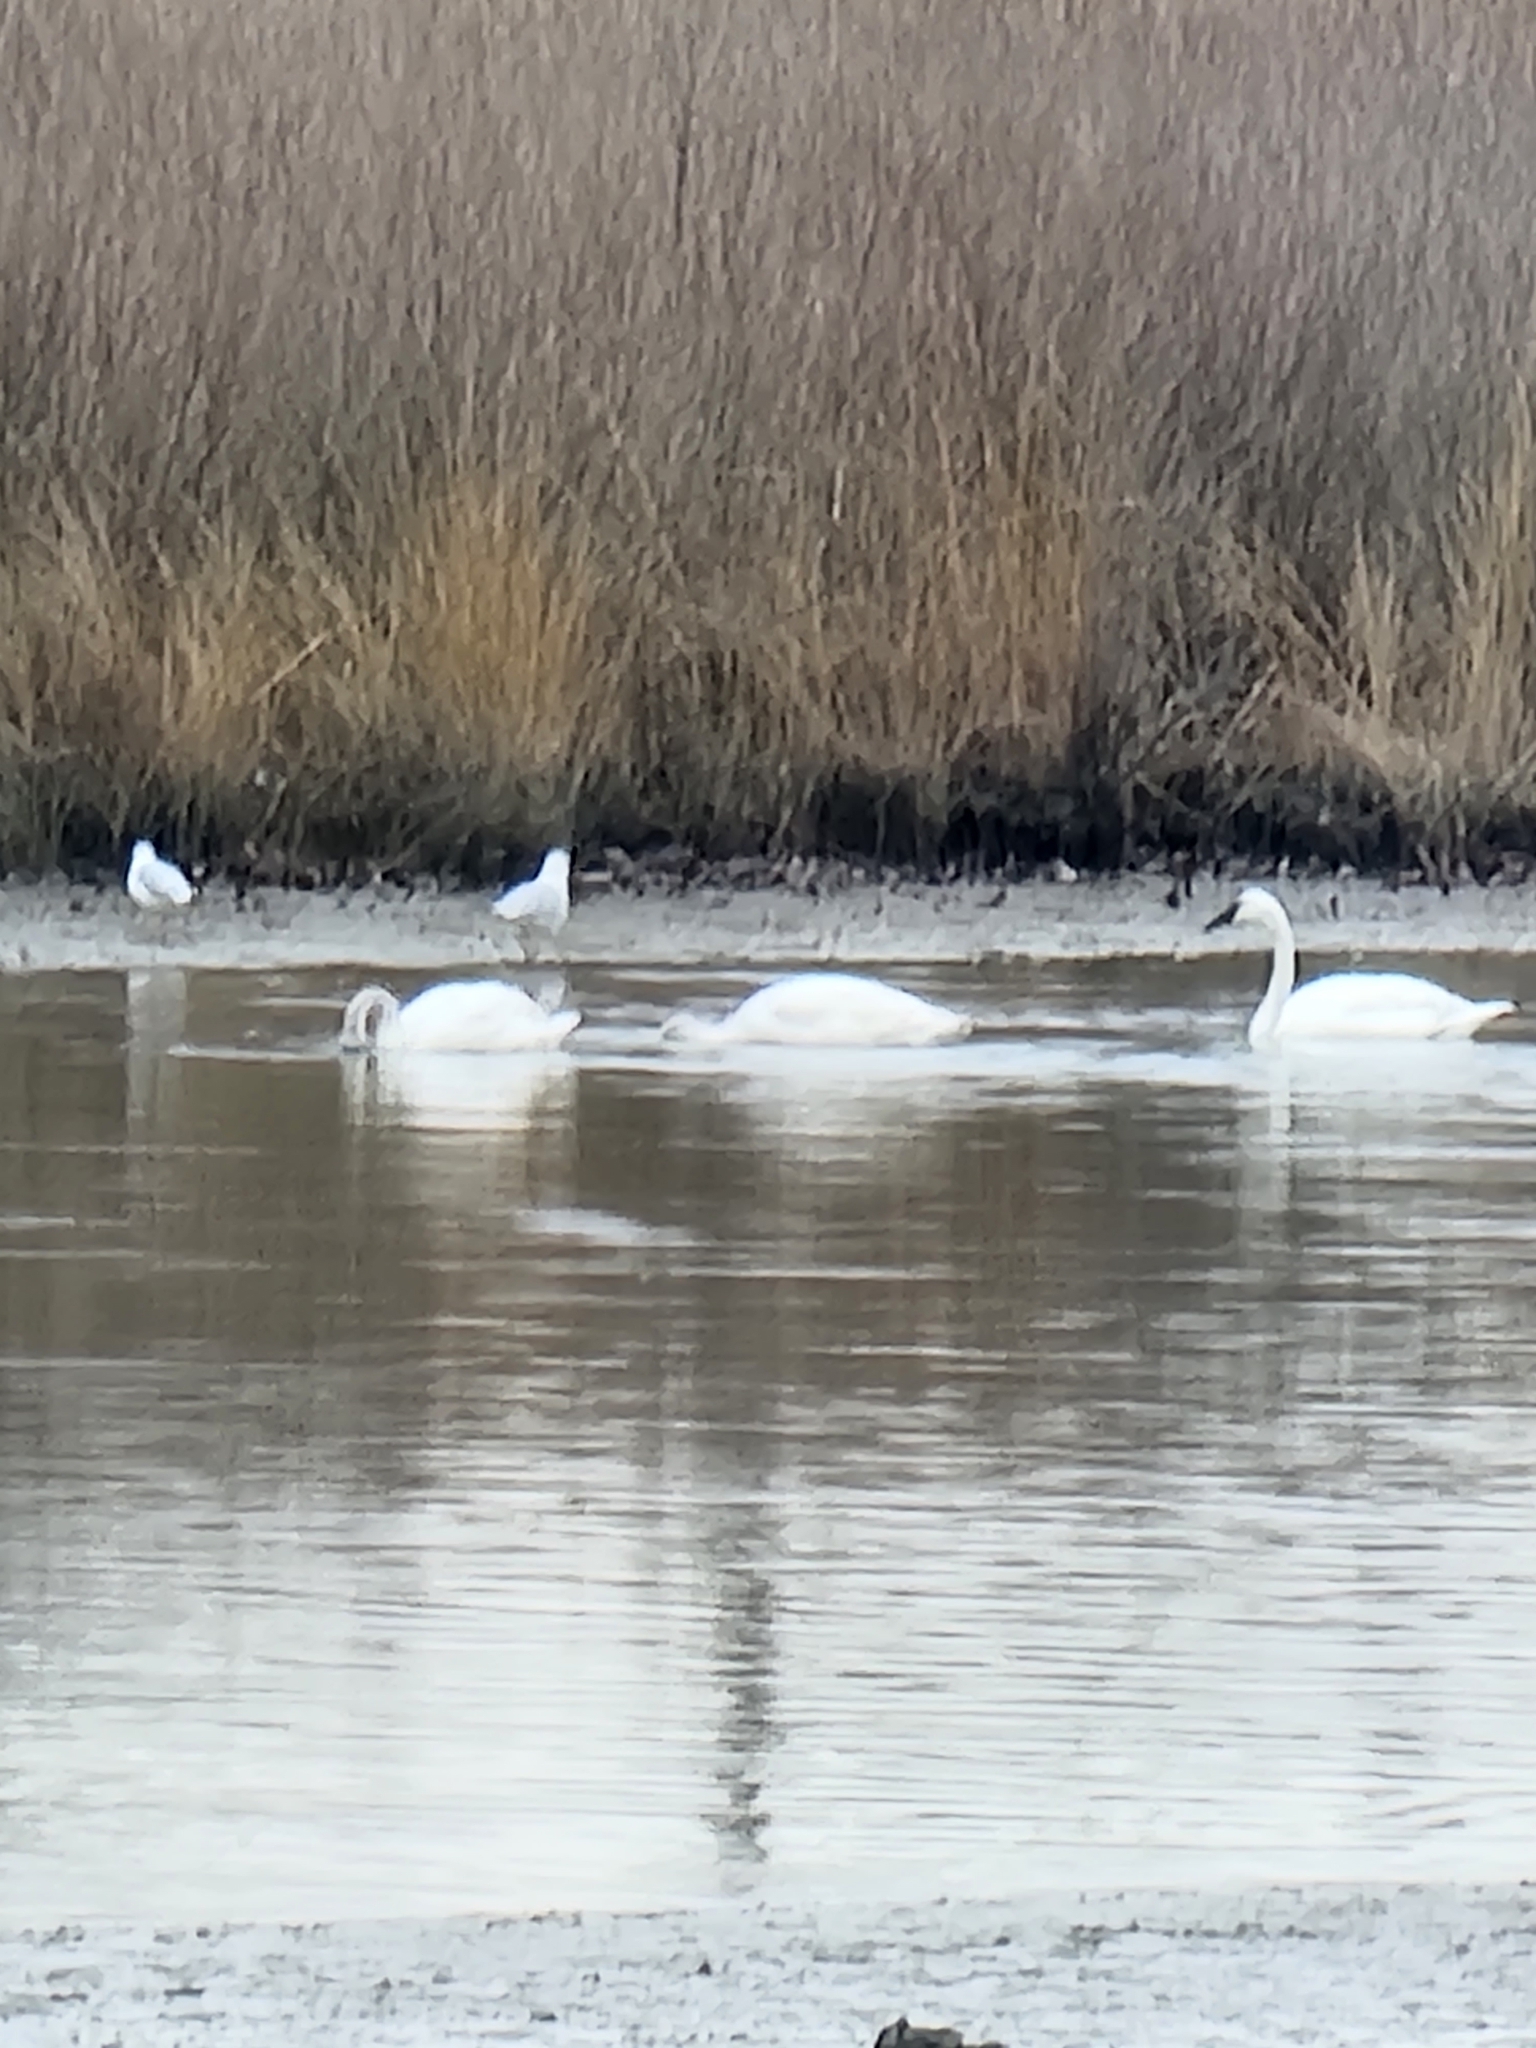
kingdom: Animalia
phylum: Chordata
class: Aves
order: Anseriformes
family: Anatidae
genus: Cygnus
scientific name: Cygnus columbianus
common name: Tundra swan
